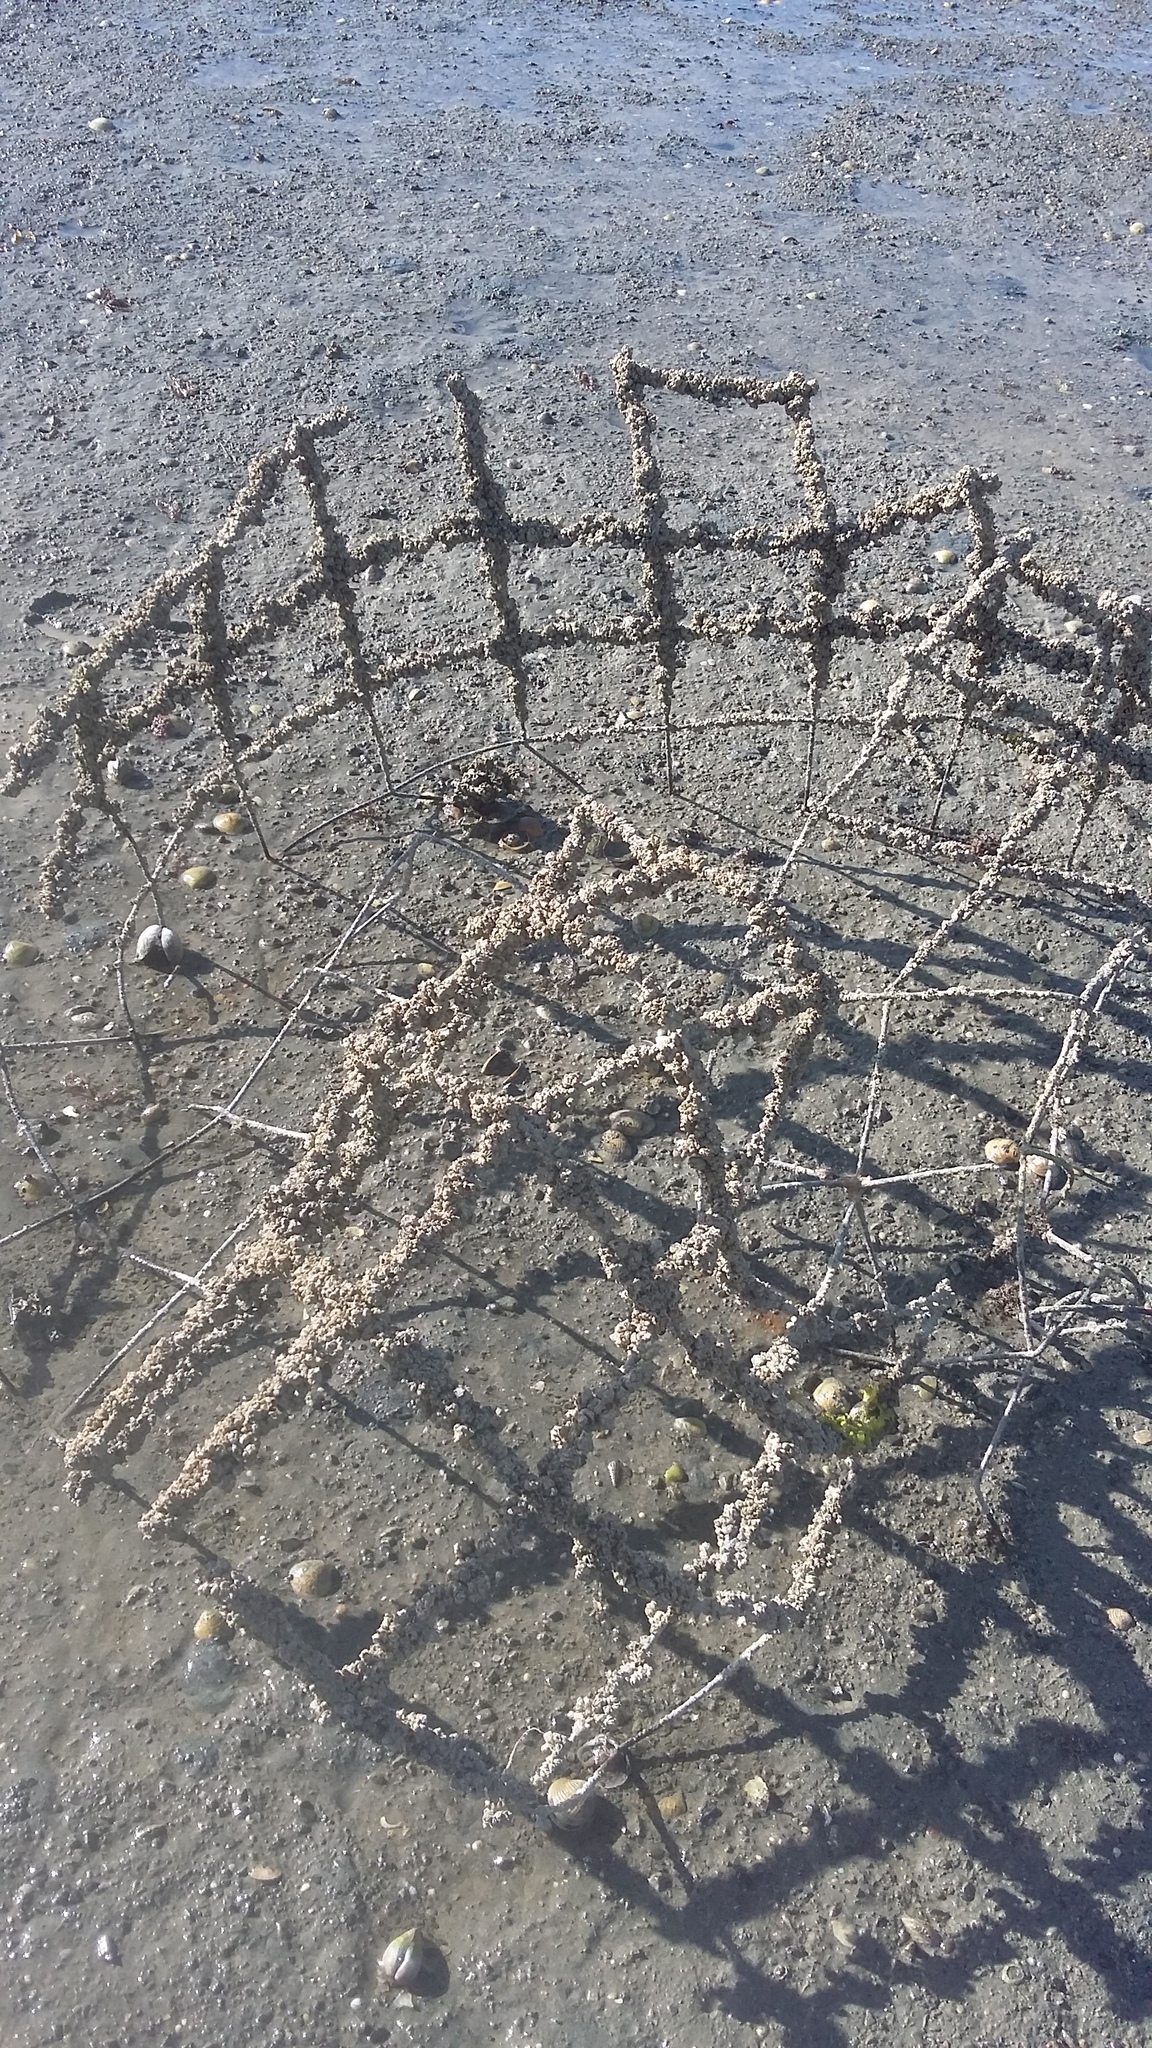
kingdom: Animalia
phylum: Arthropoda
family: Elminiidae
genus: Austrominius
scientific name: Austrominius modestus
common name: Australasian barnacle
